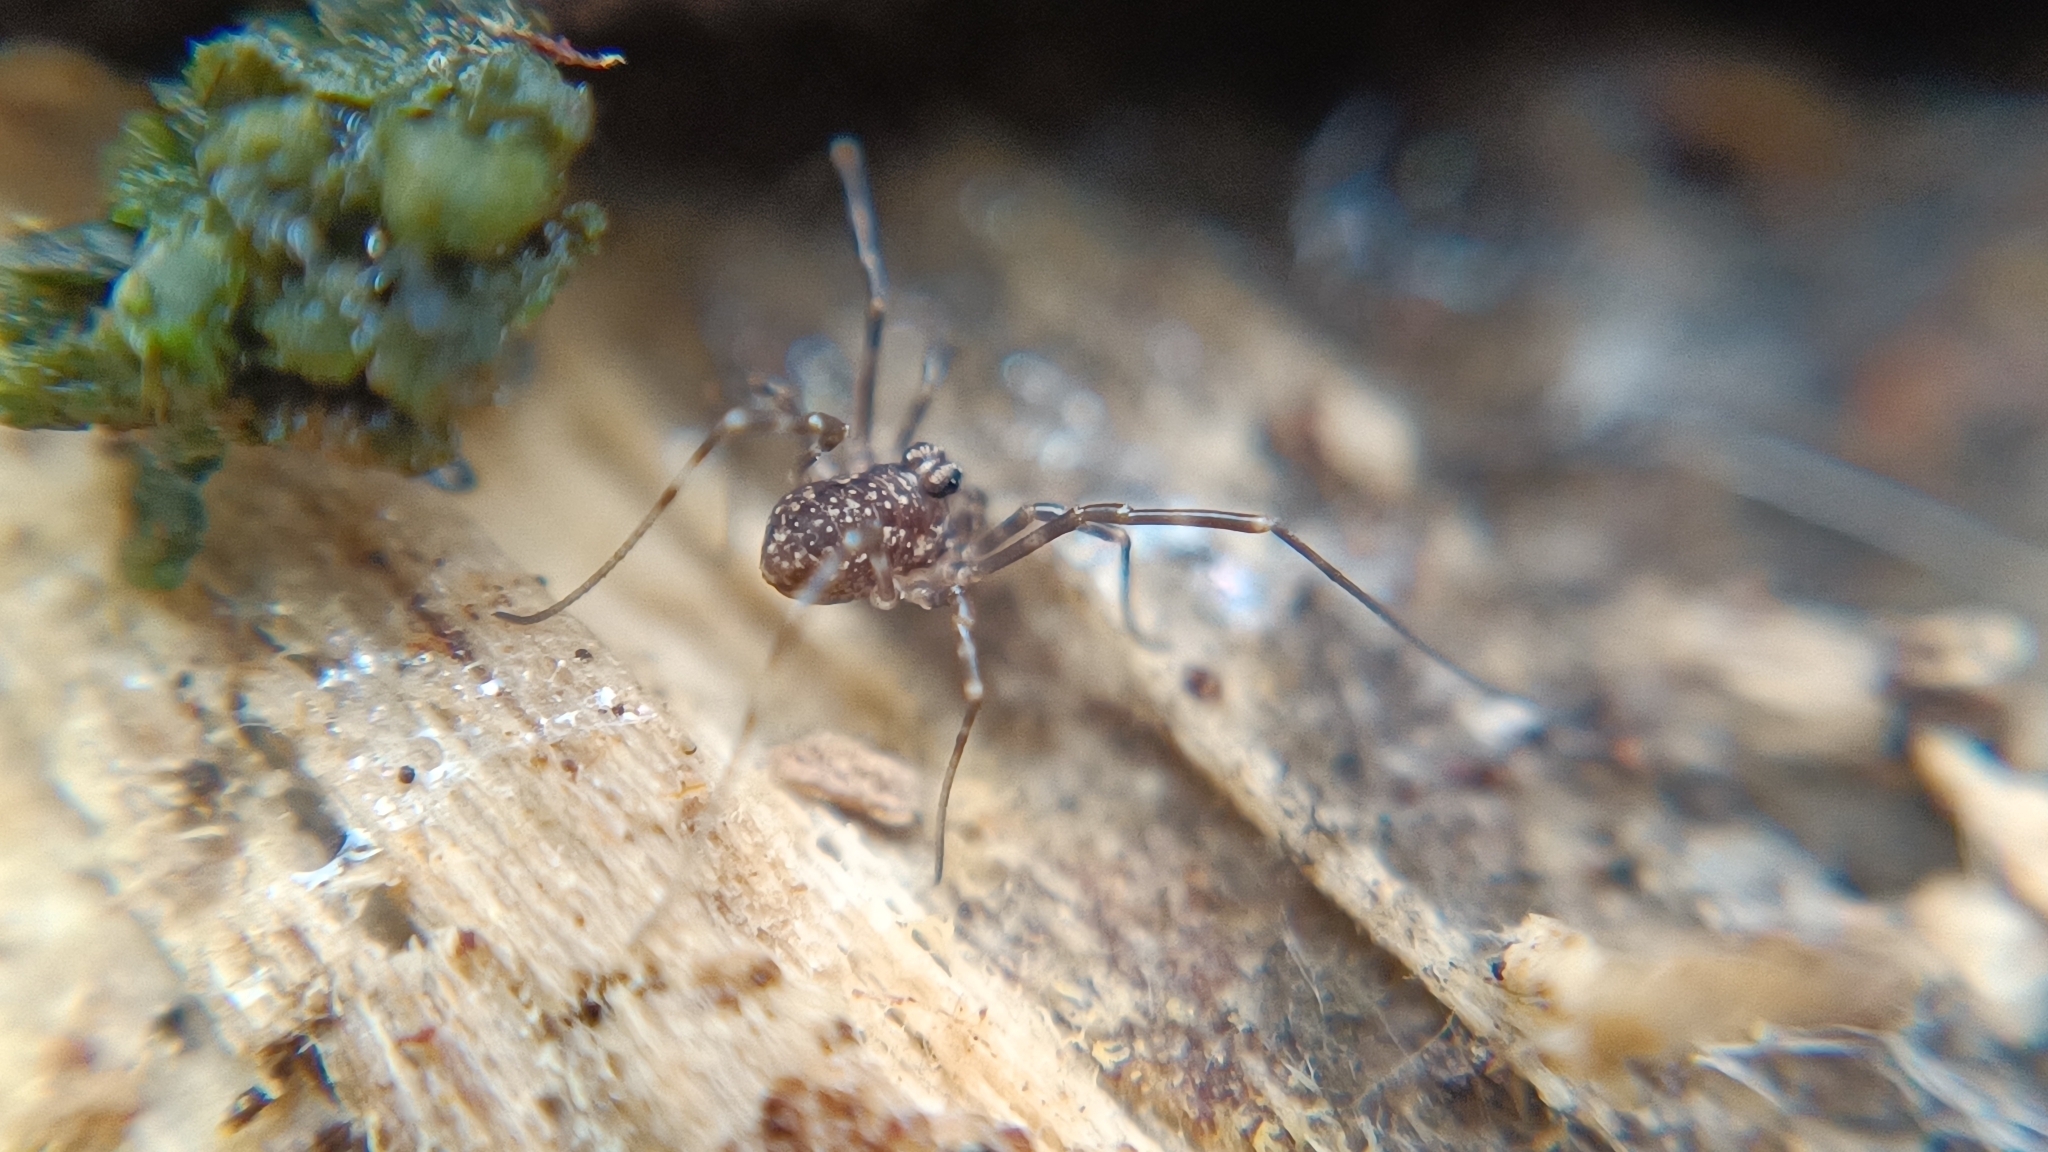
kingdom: Animalia
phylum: Arthropoda
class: Arachnida
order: Opiliones
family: Phalangiidae
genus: Rilaena
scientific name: Rilaena triangularis
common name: Spring harvestman
